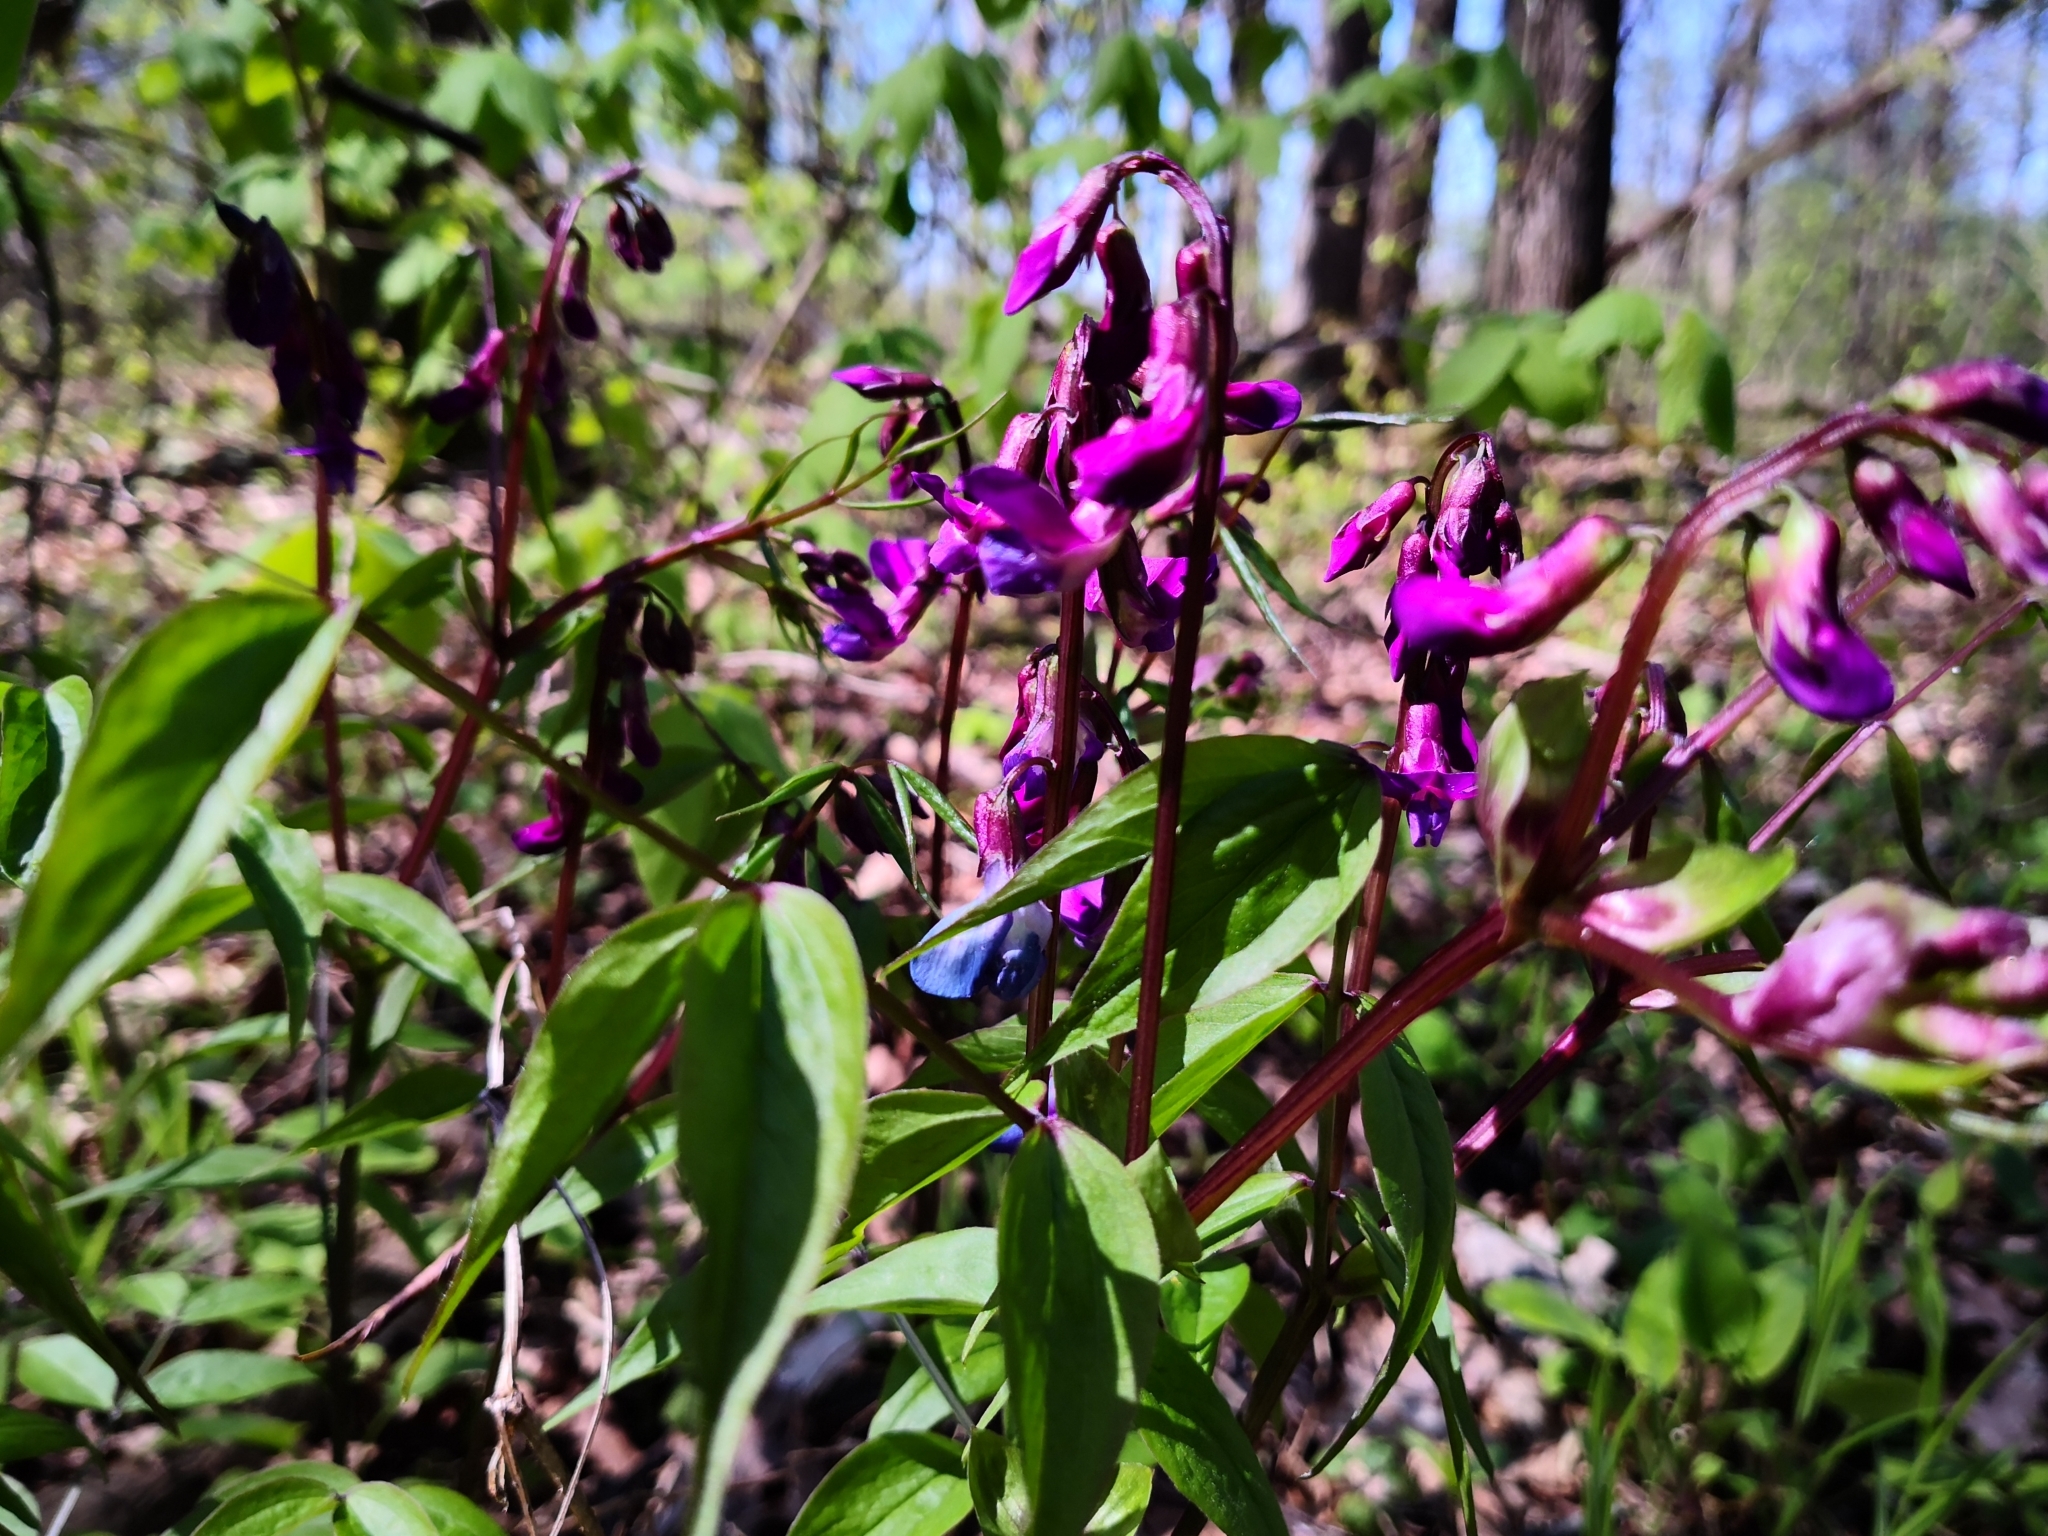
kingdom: Plantae
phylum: Tracheophyta
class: Magnoliopsida
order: Fabales
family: Fabaceae
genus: Lathyrus
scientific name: Lathyrus vernus
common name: Spring pea
